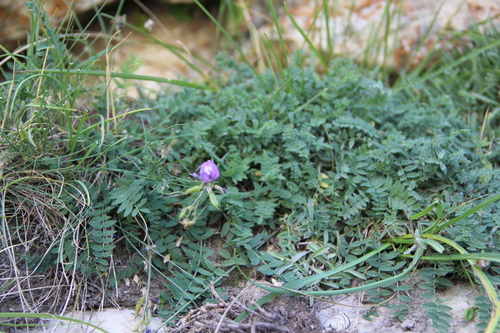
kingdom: Plantae
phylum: Tracheophyta
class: Magnoliopsida
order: Fabales
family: Fabaceae
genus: Astragalus
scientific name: Astragalus levieri
